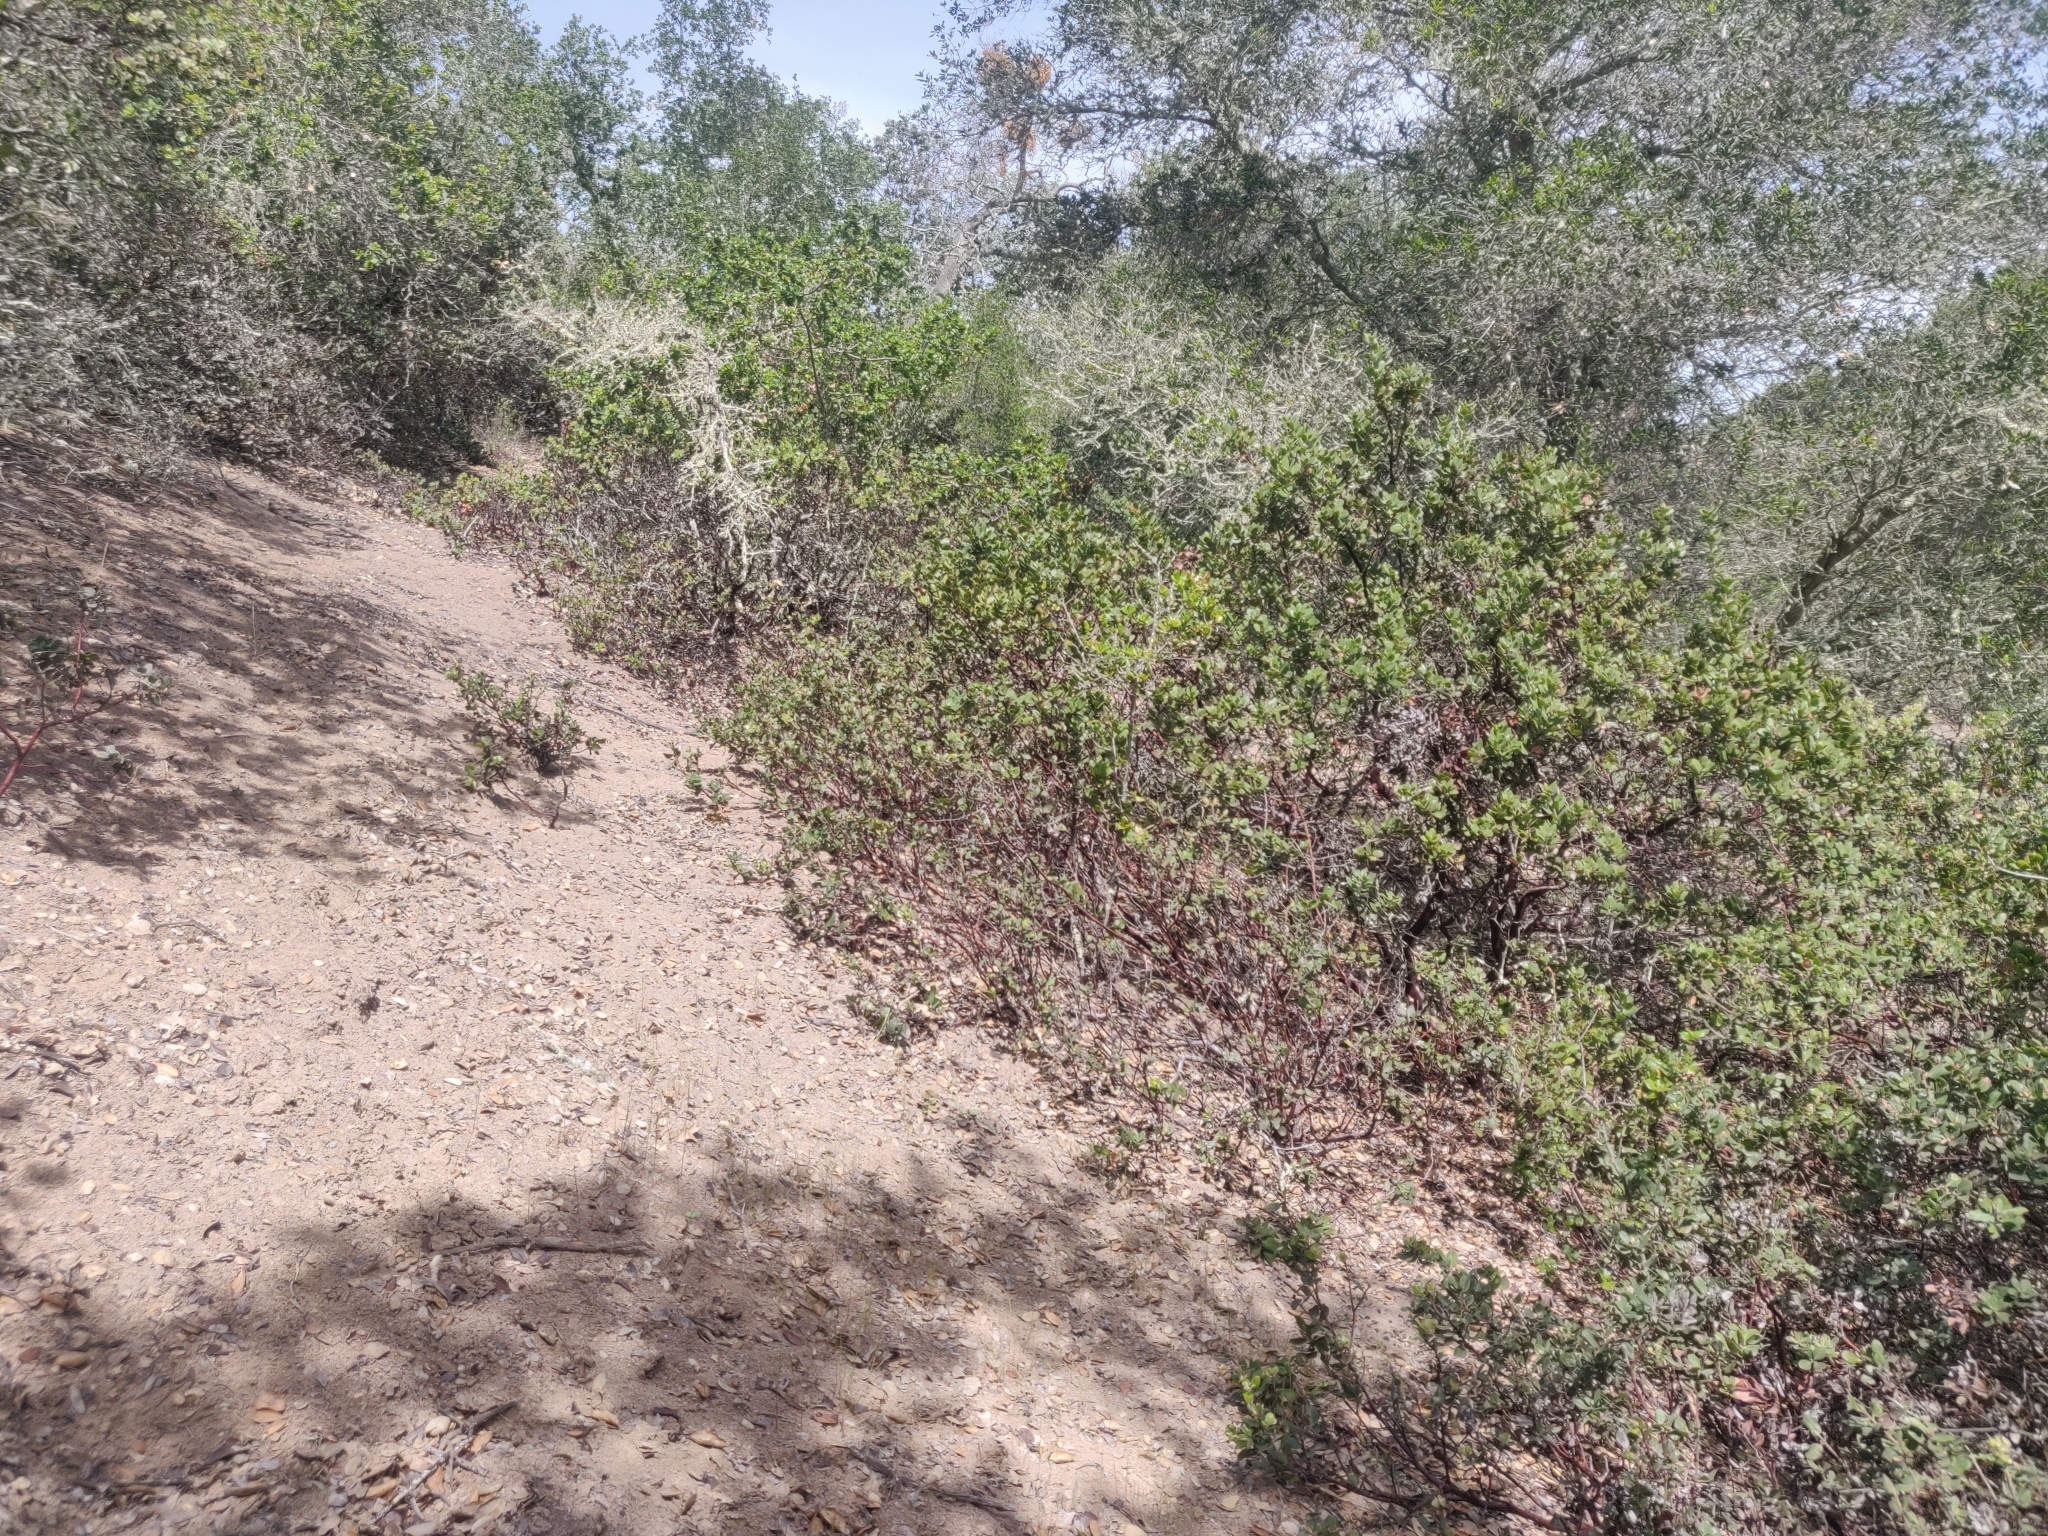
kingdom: Plantae
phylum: Tracheophyta
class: Magnoliopsida
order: Ericales
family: Ericaceae
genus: Arctostaphylos
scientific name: Arctostaphylos crustacea
